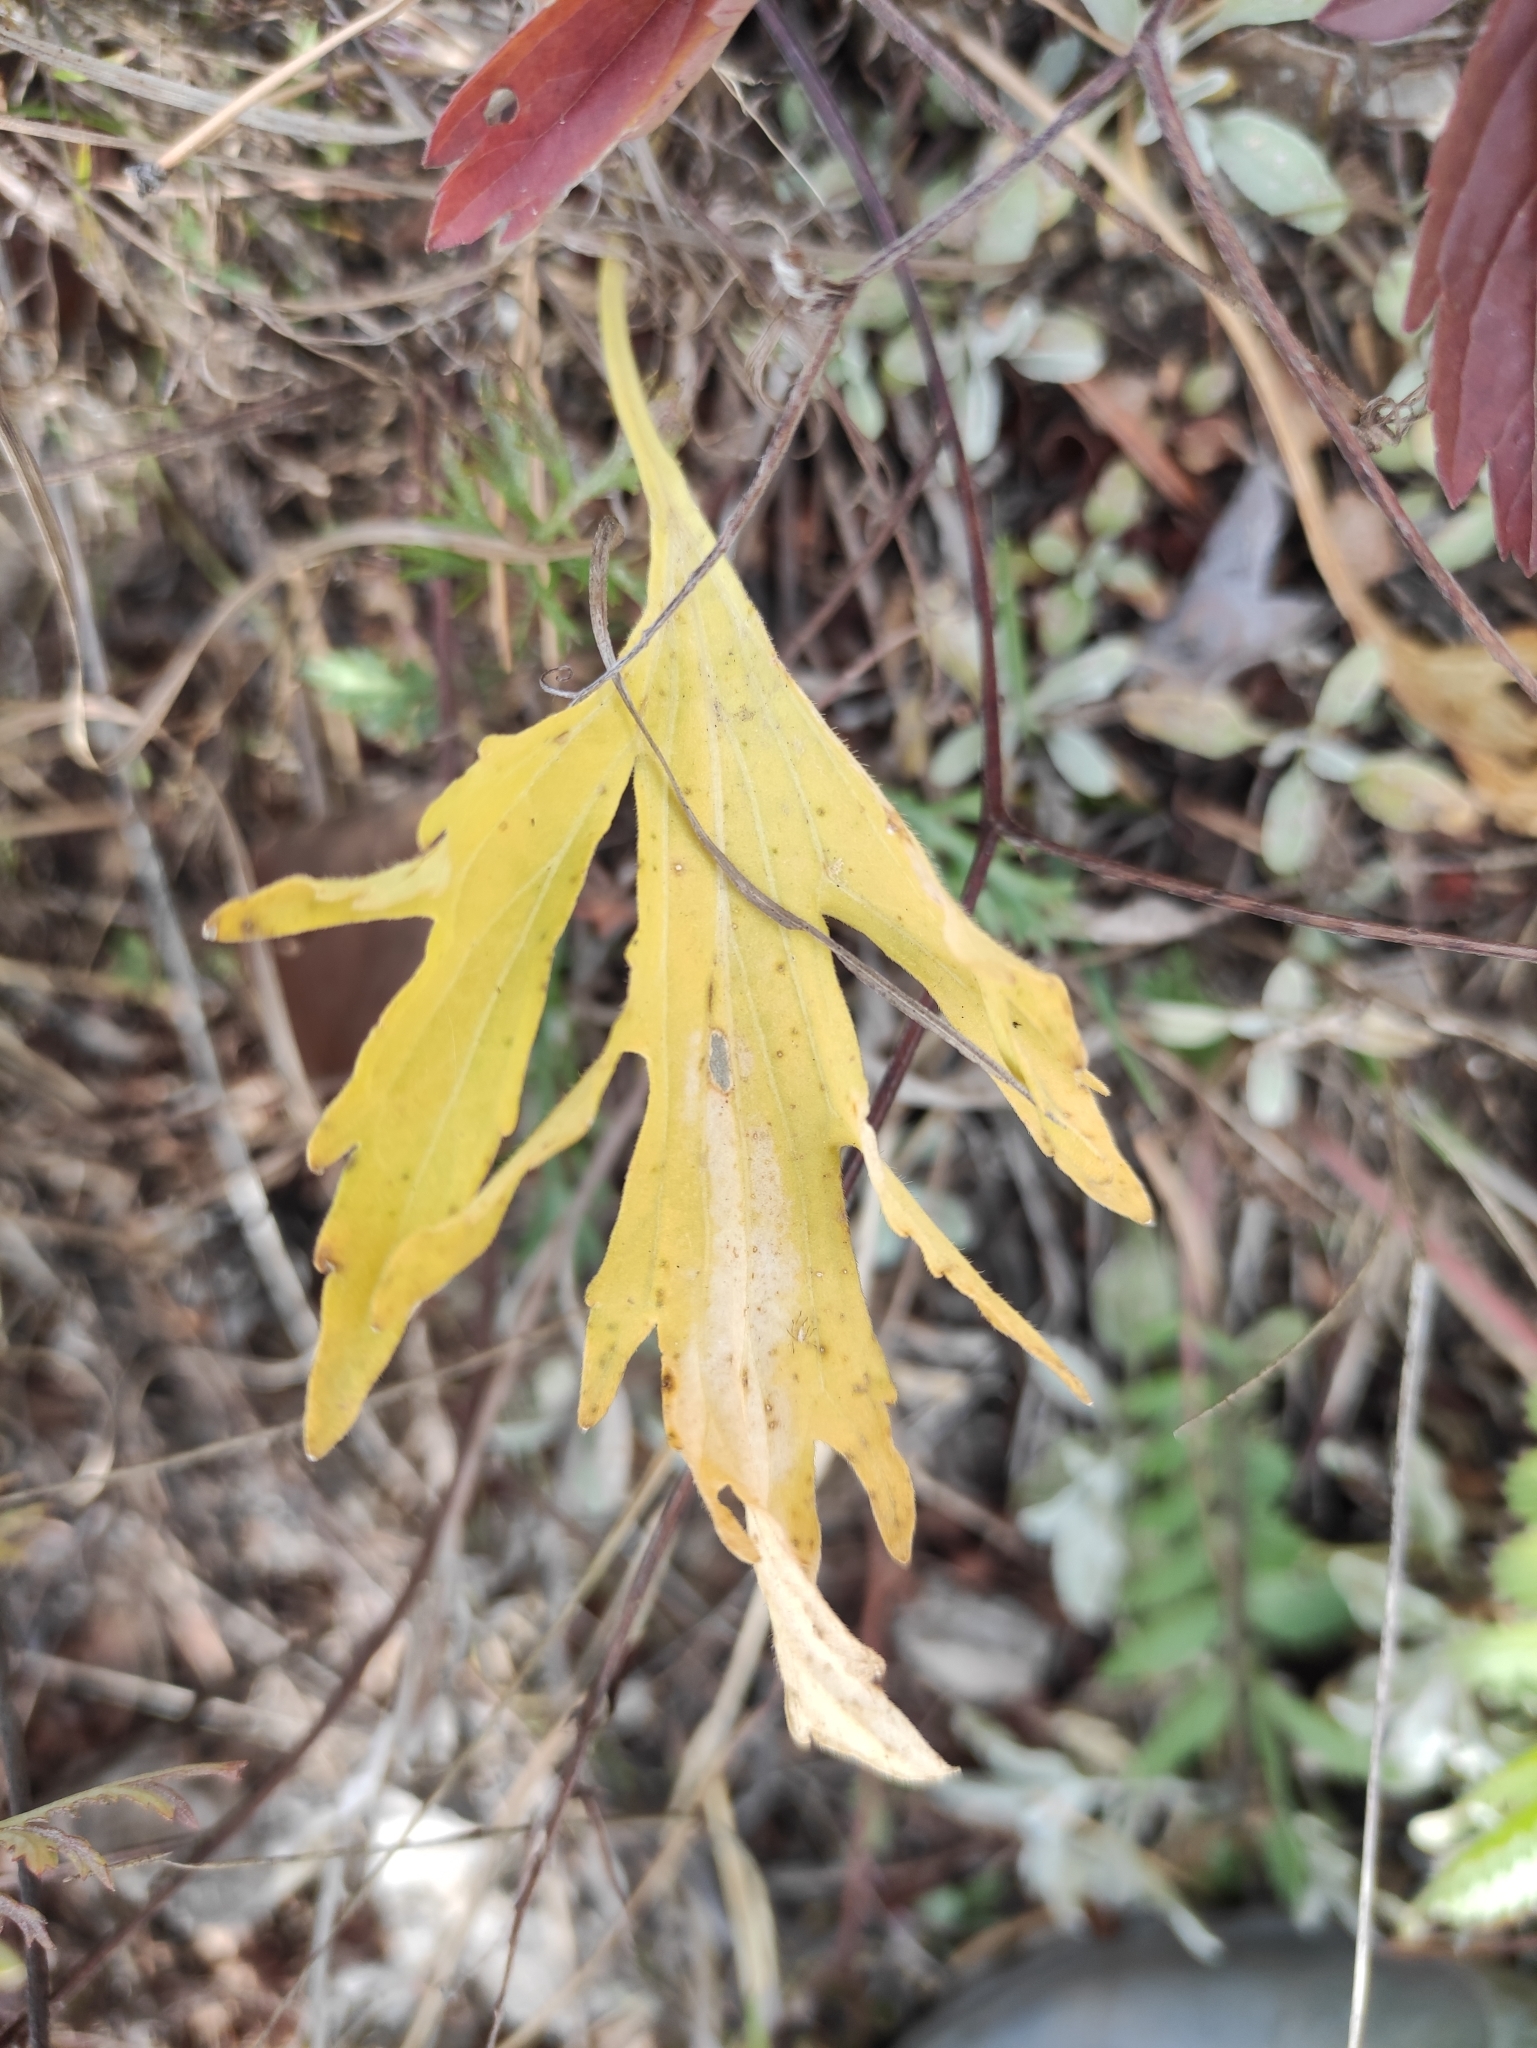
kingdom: Plantae
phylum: Tracheophyta
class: Magnoliopsida
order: Malpighiales
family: Violaceae
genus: Viola
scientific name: Viola incissecta
